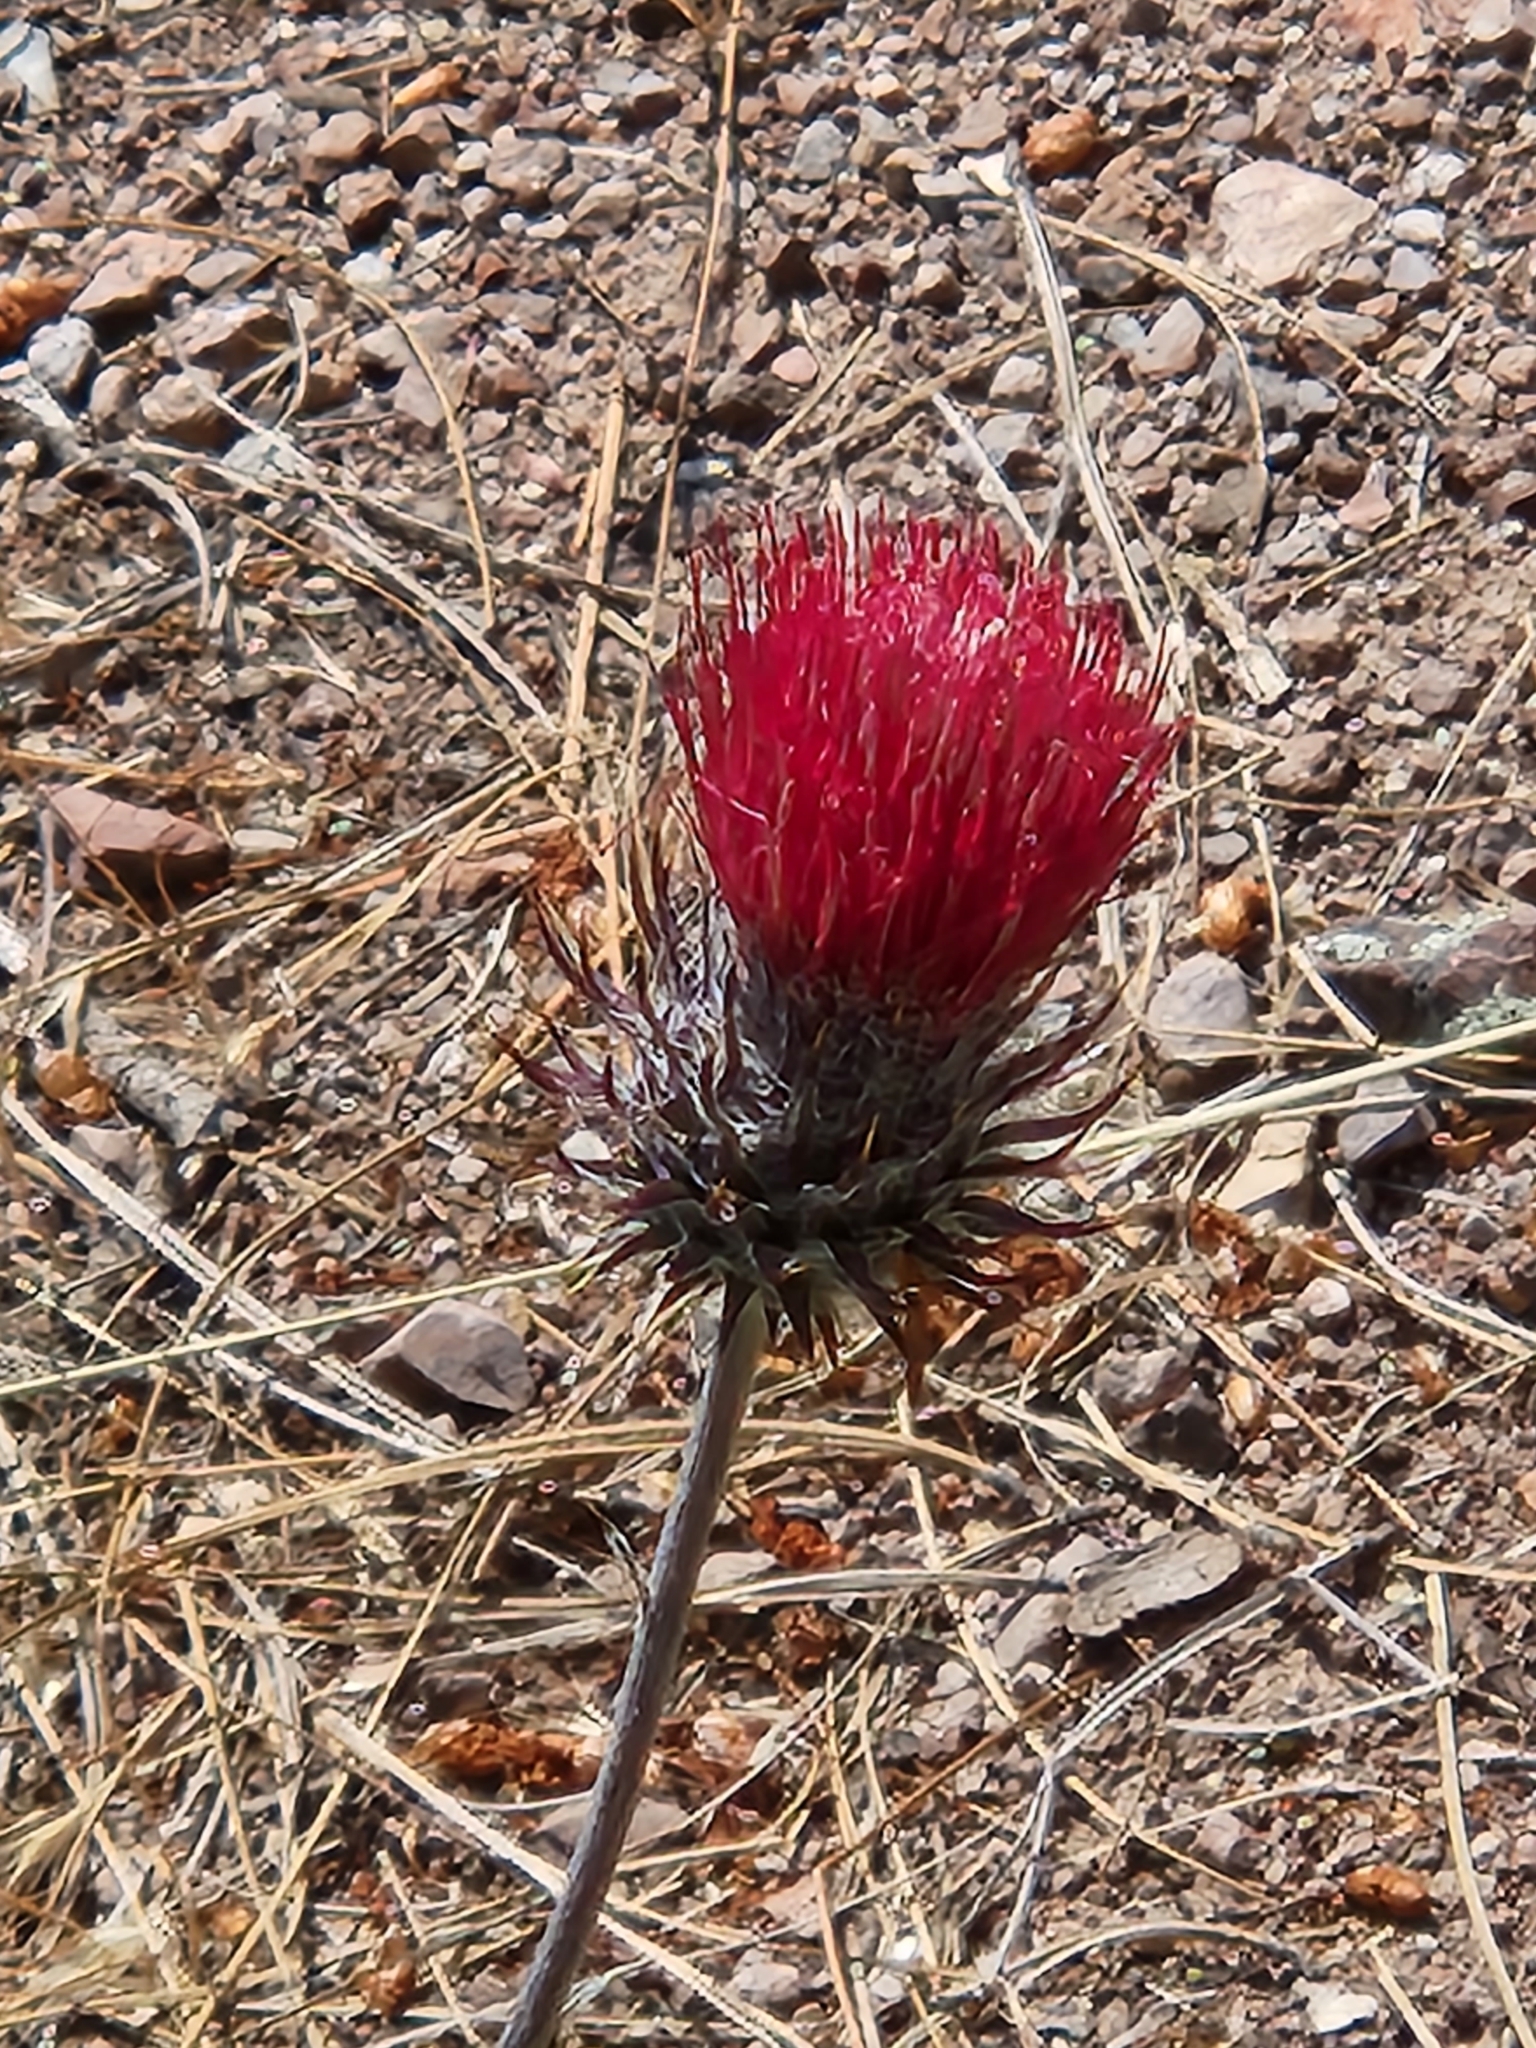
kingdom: Plantae
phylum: Tracheophyta
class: Magnoliopsida
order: Asterales
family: Asteraceae
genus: Cirsium
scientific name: Cirsium occidentale
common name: Western thistle
